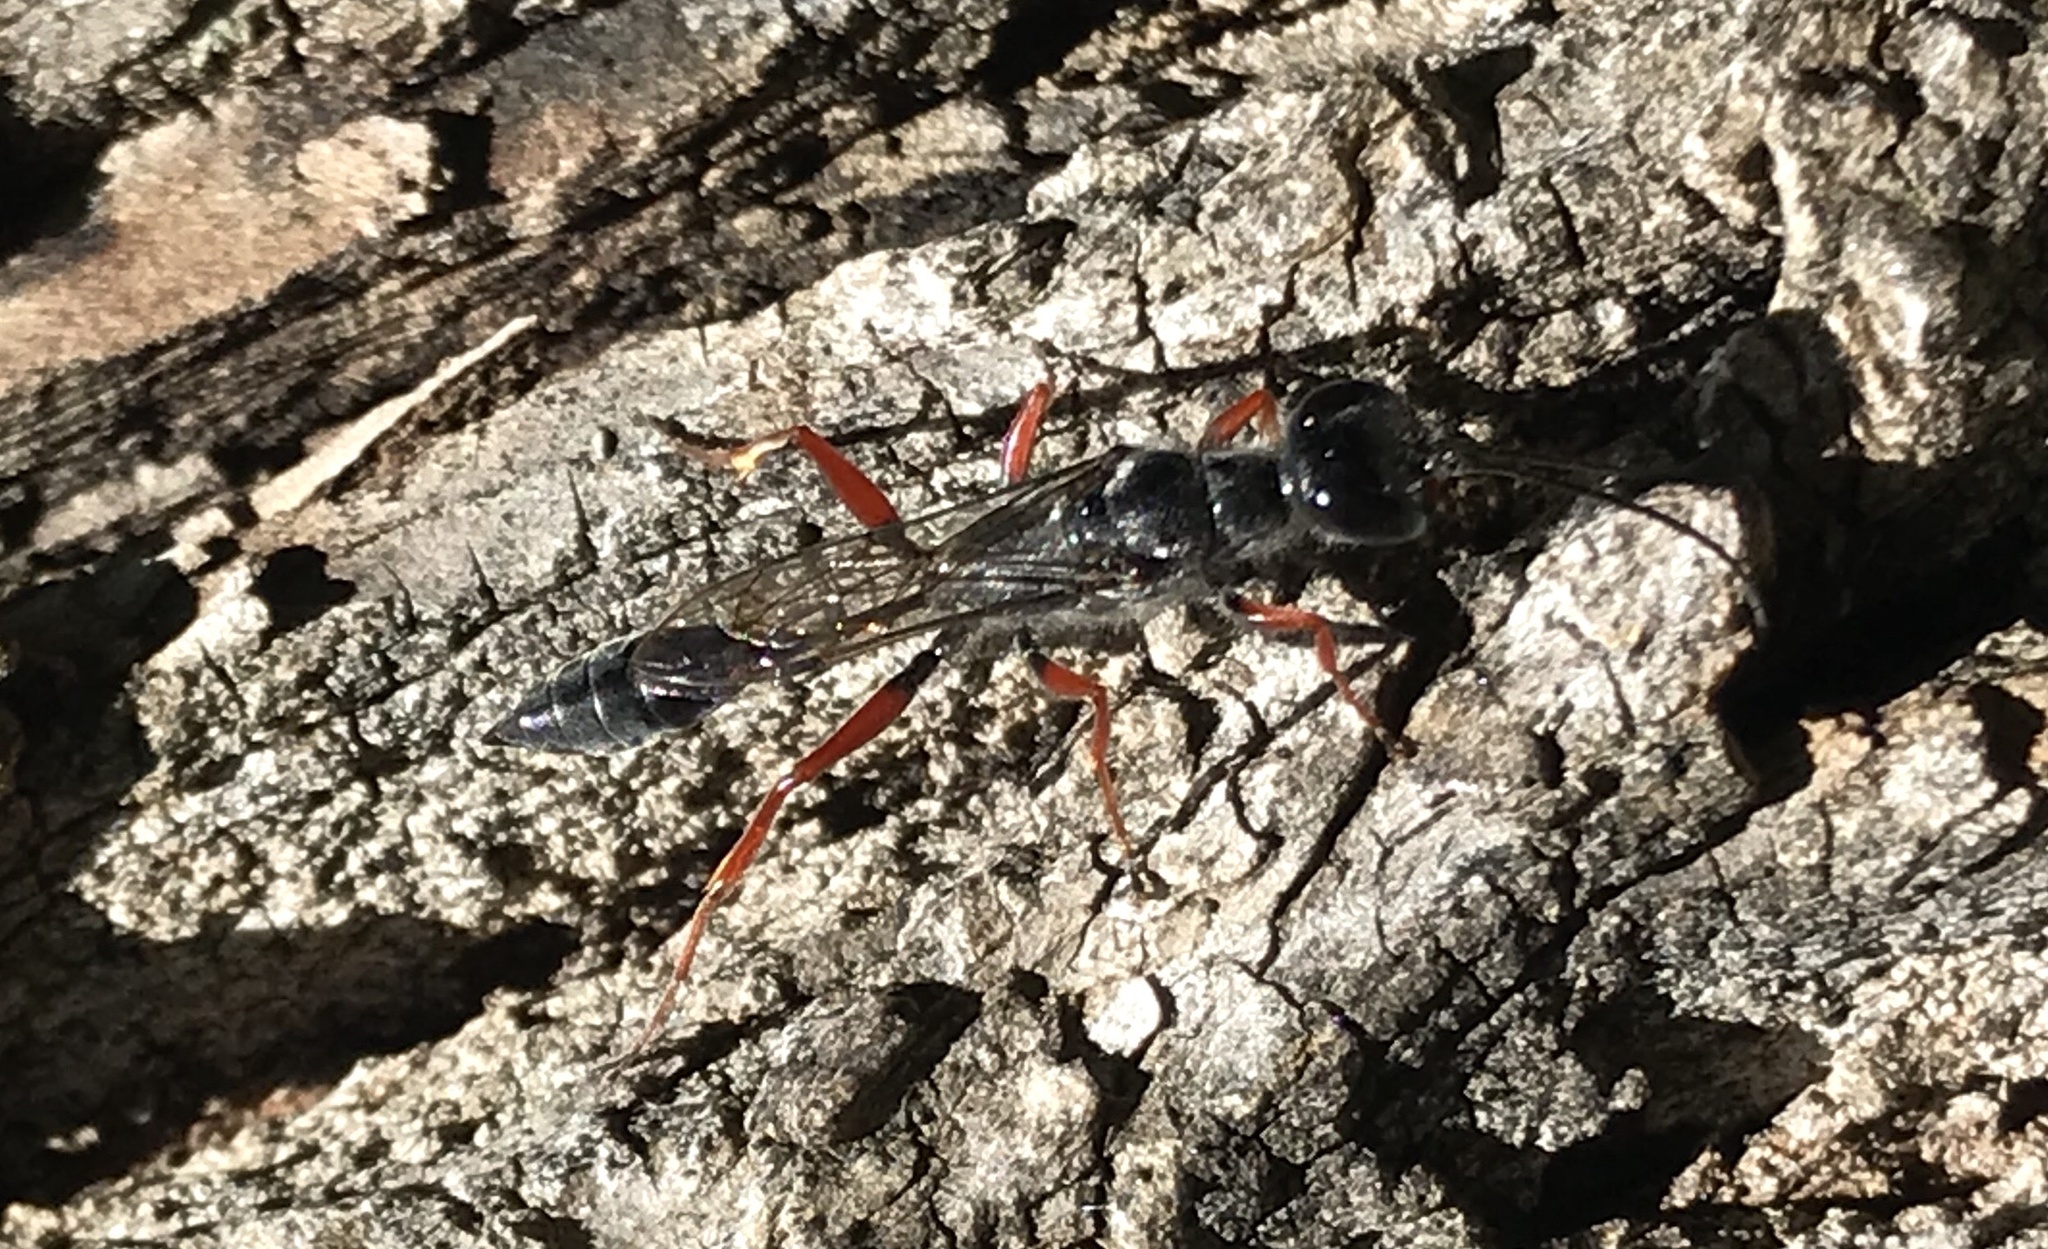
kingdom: Animalia
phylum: Arthropoda
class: Insecta
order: Hymenoptera
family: Sphecidae
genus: Podium
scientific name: Podium rufipes
